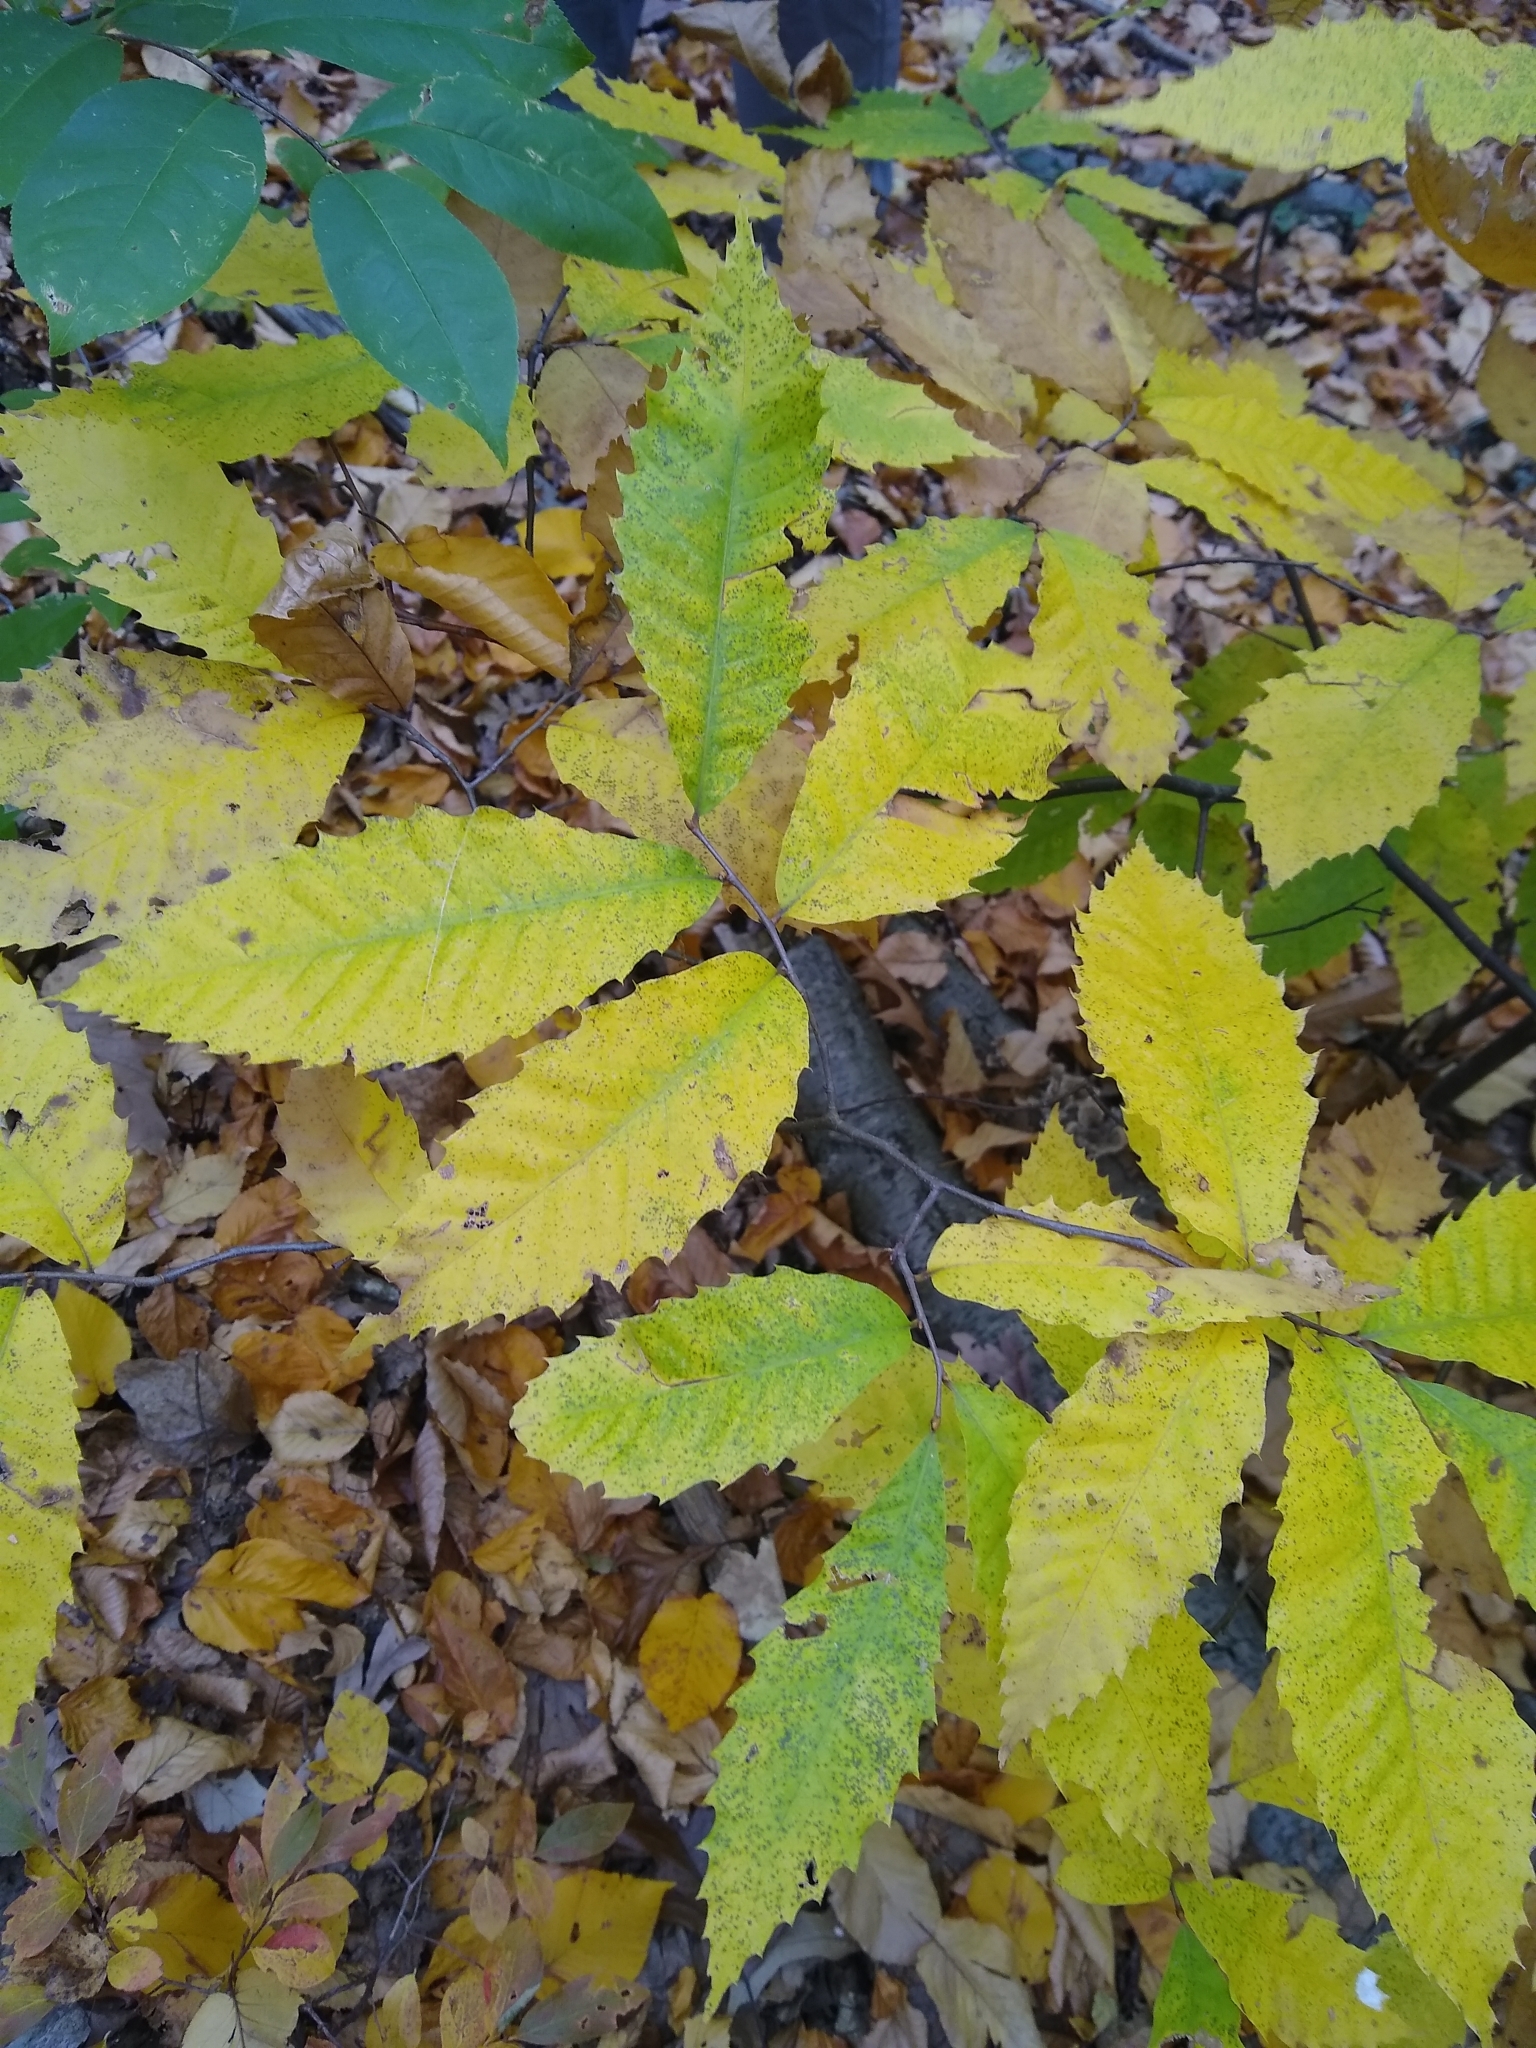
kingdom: Plantae
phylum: Tracheophyta
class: Magnoliopsida
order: Fagales
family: Fagaceae
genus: Castanea
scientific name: Castanea dentata
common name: American chestnut
